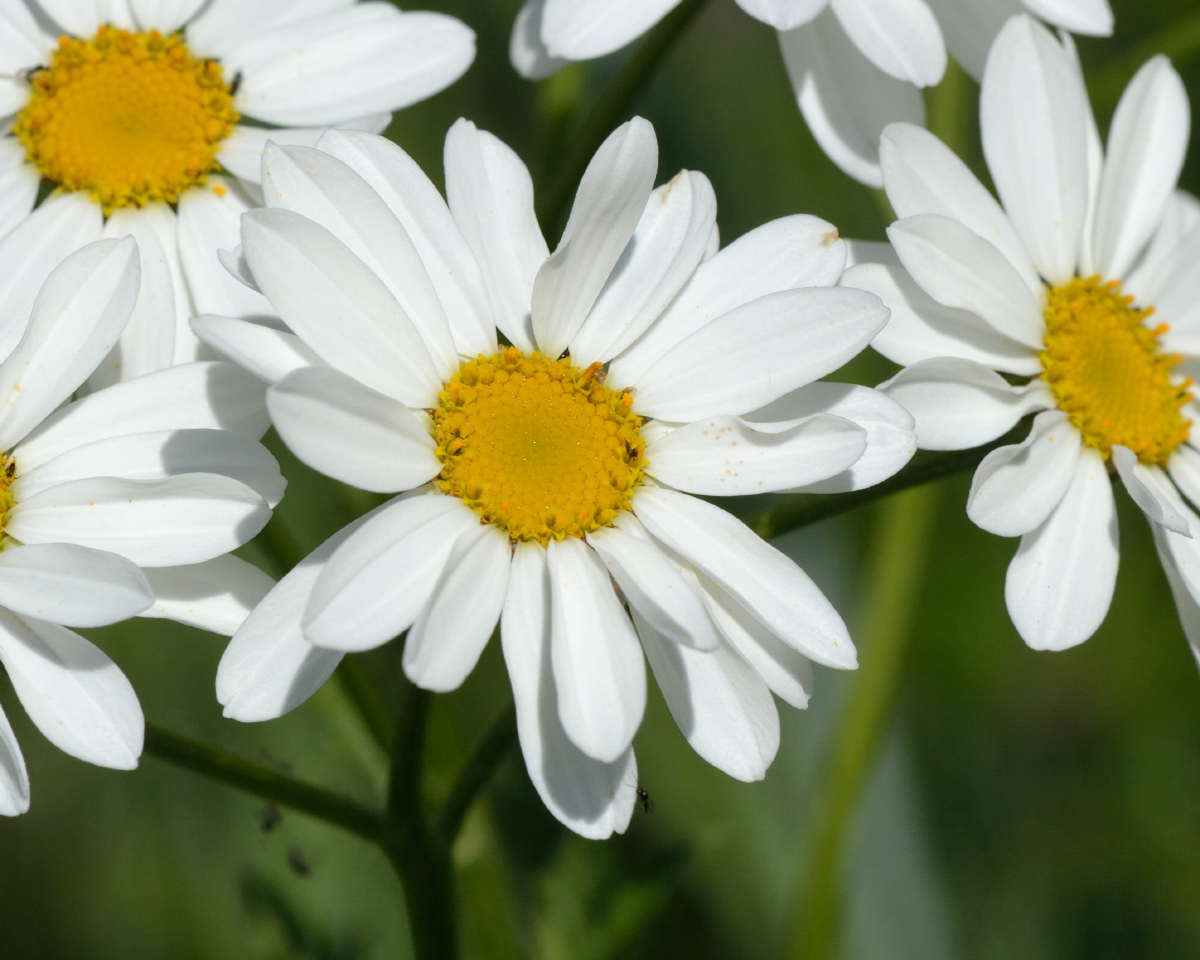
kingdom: Plantae
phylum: Tracheophyta
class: Magnoliopsida
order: Asterales
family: Asteraceae
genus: Tanacetum
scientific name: Tanacetum corymbosum
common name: Scentless feverfew
